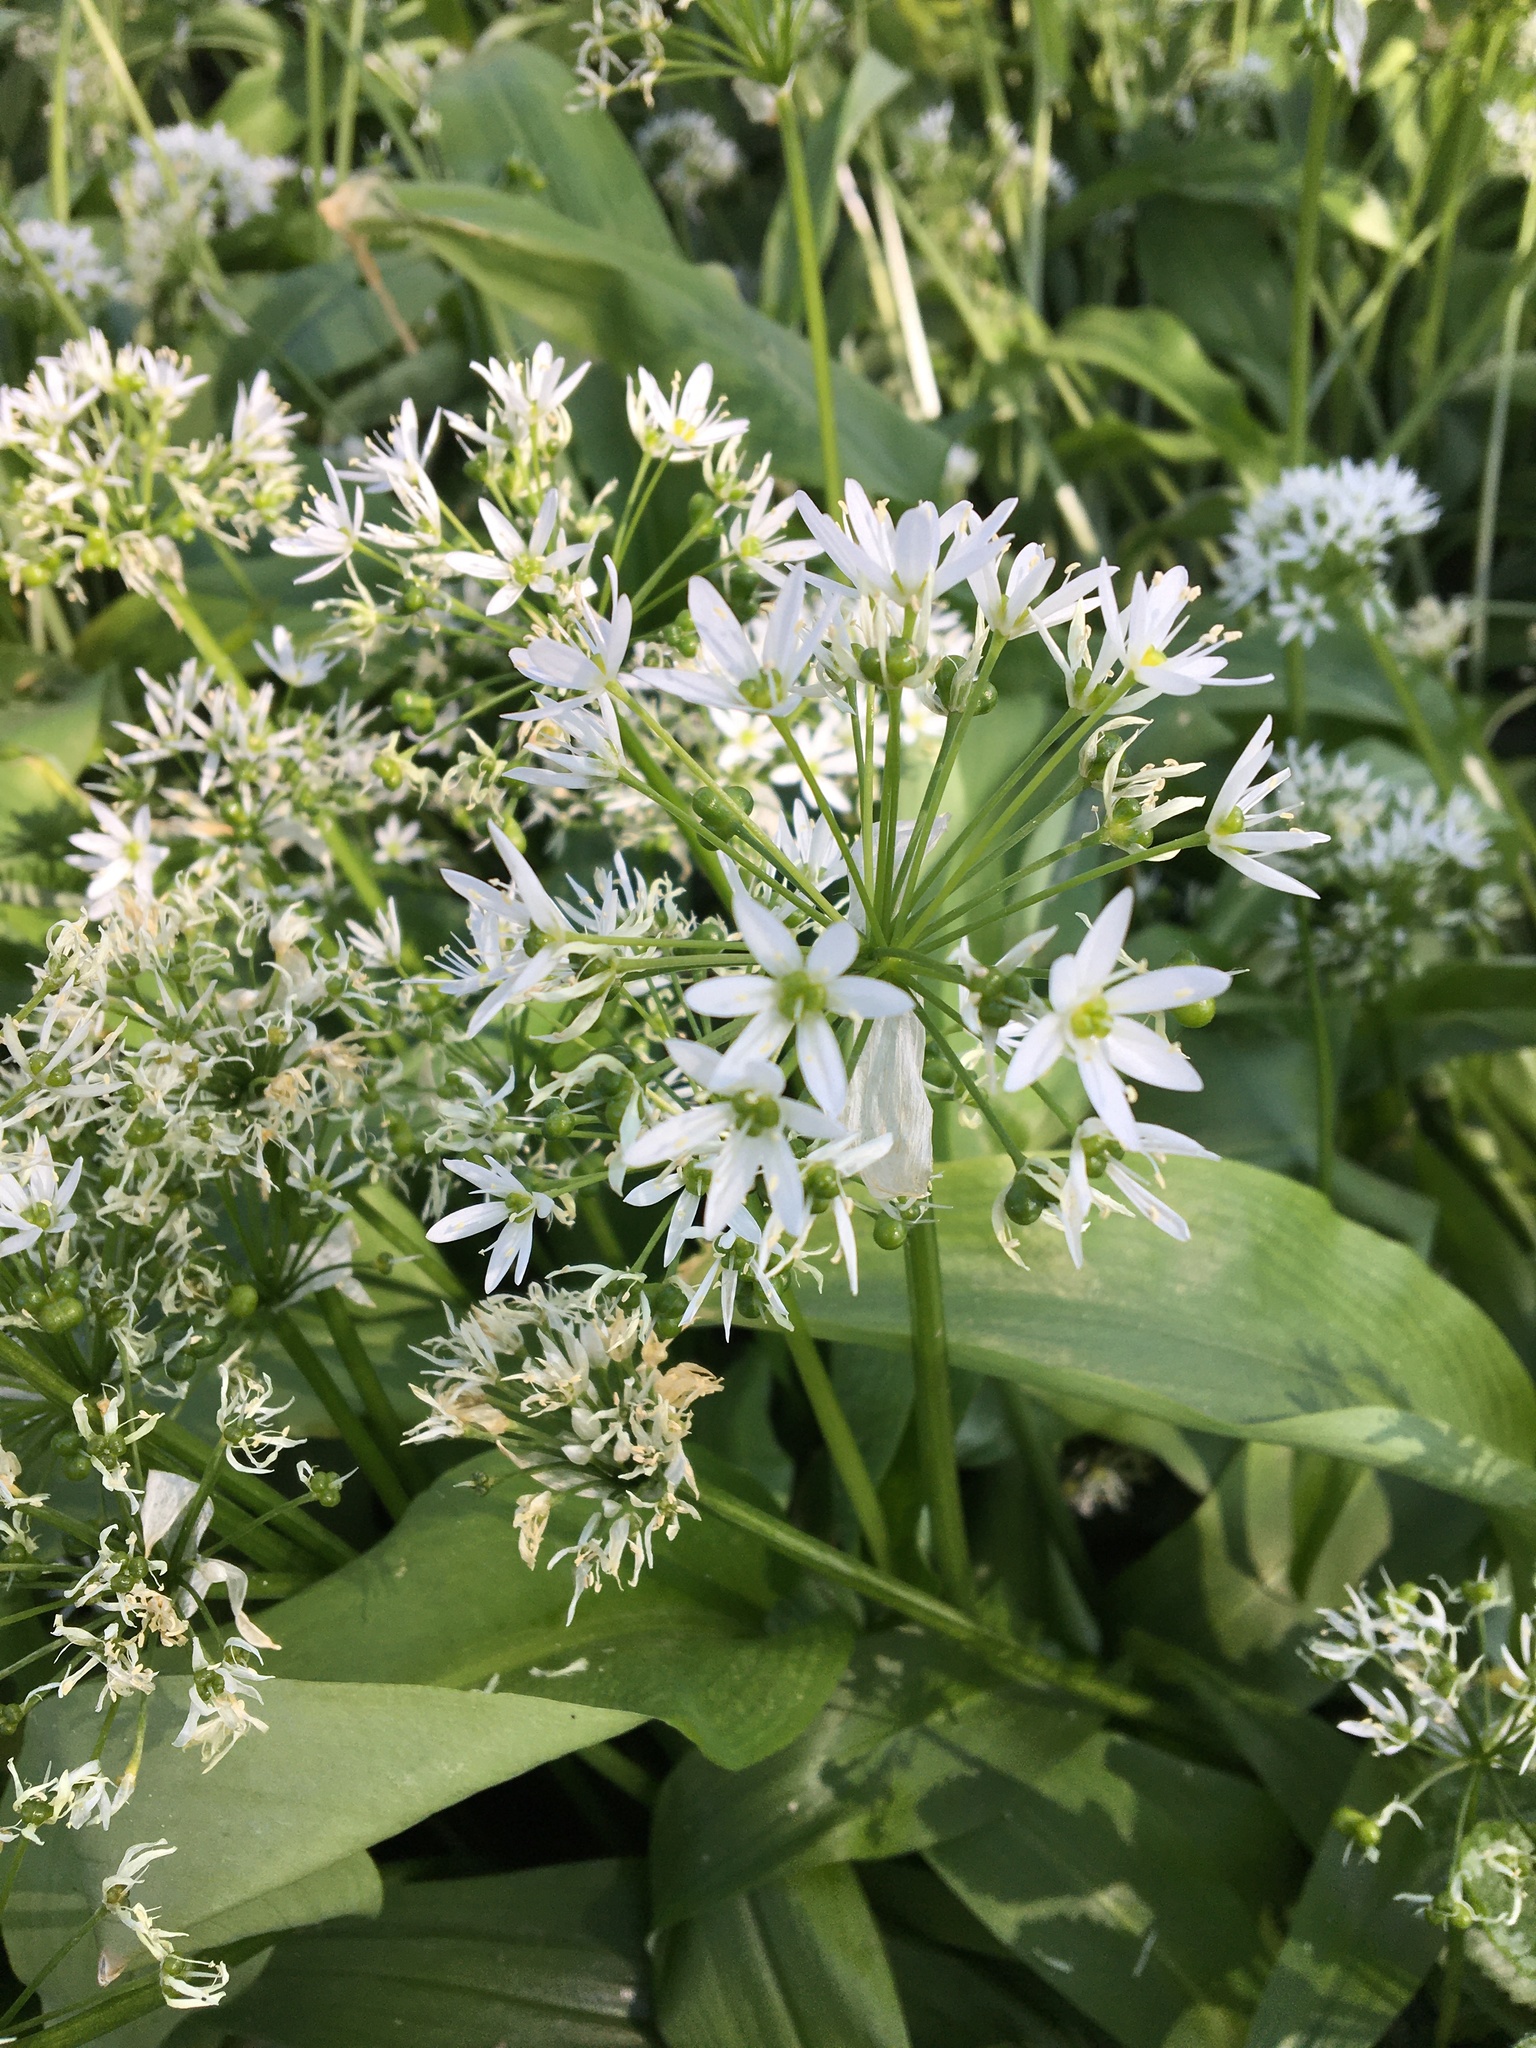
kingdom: Plantae
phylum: Tracheophyta
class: Liliopsida
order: Asparagales
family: Amaryllidaceae
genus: Allium
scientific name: Allium ursinum
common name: Ramsons
